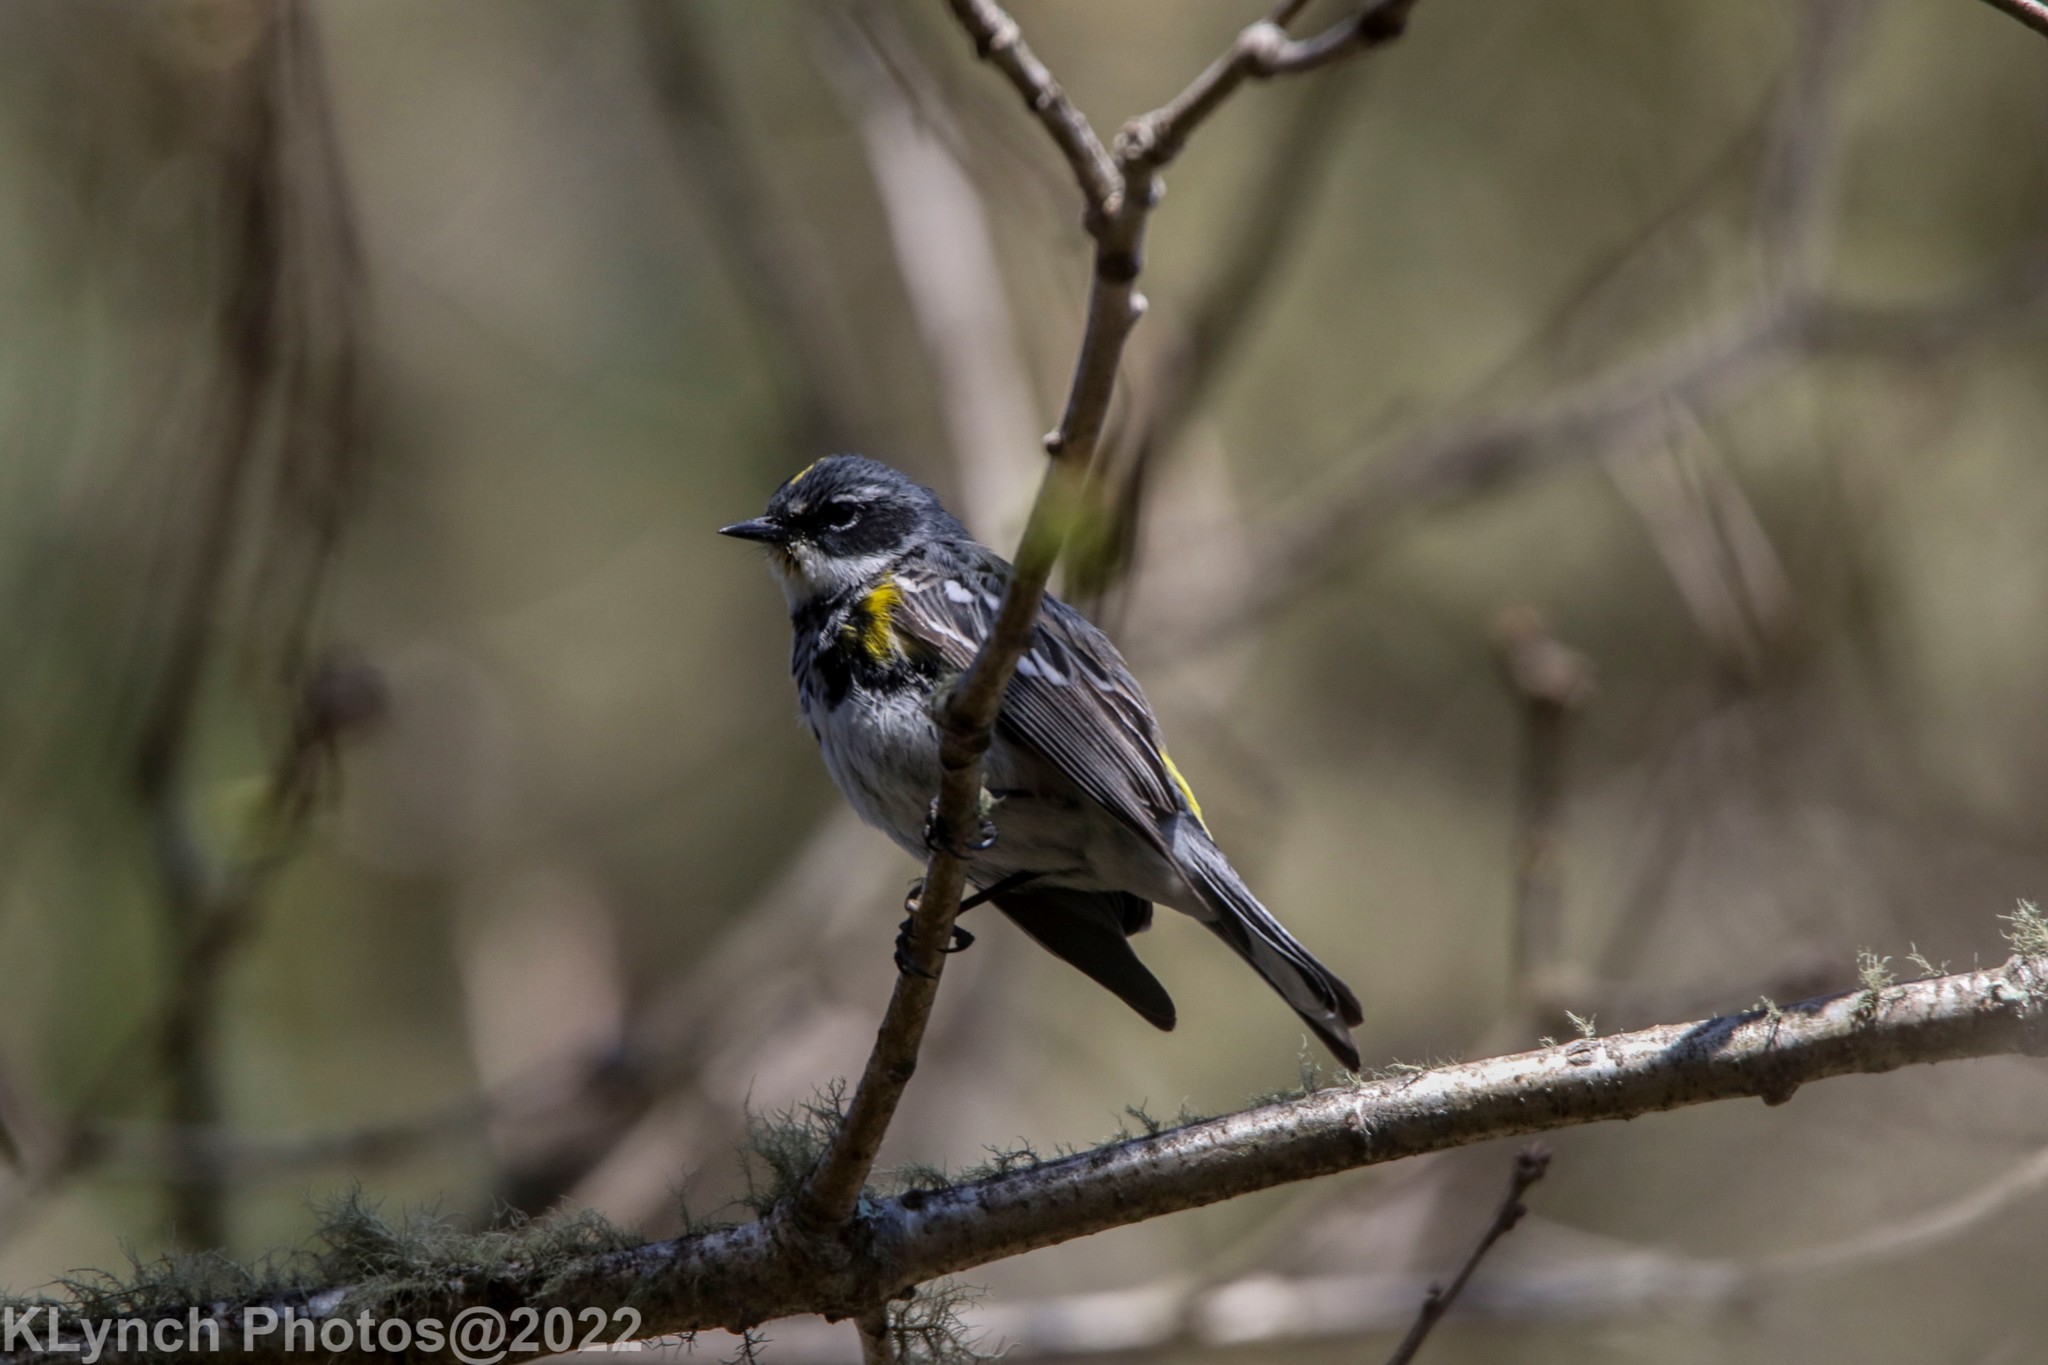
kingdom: Animalia
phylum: Chordata
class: Aves
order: Passeriformes
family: Parulidae
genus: Setophaga
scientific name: Setophaga coronata
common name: Myrtle warbler
